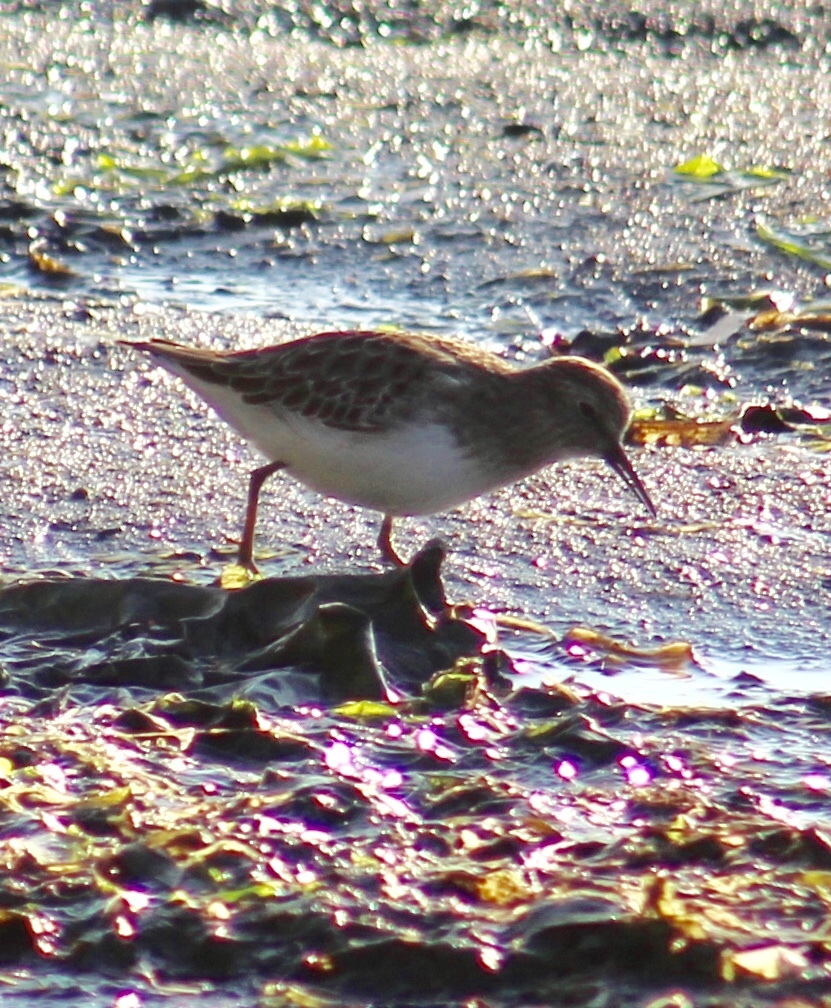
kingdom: Animalia
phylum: Chordata
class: Aves
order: Charadriiformes
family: Scolopacidae
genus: Calidris
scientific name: Calidris minutilla
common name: Least sandpiper
